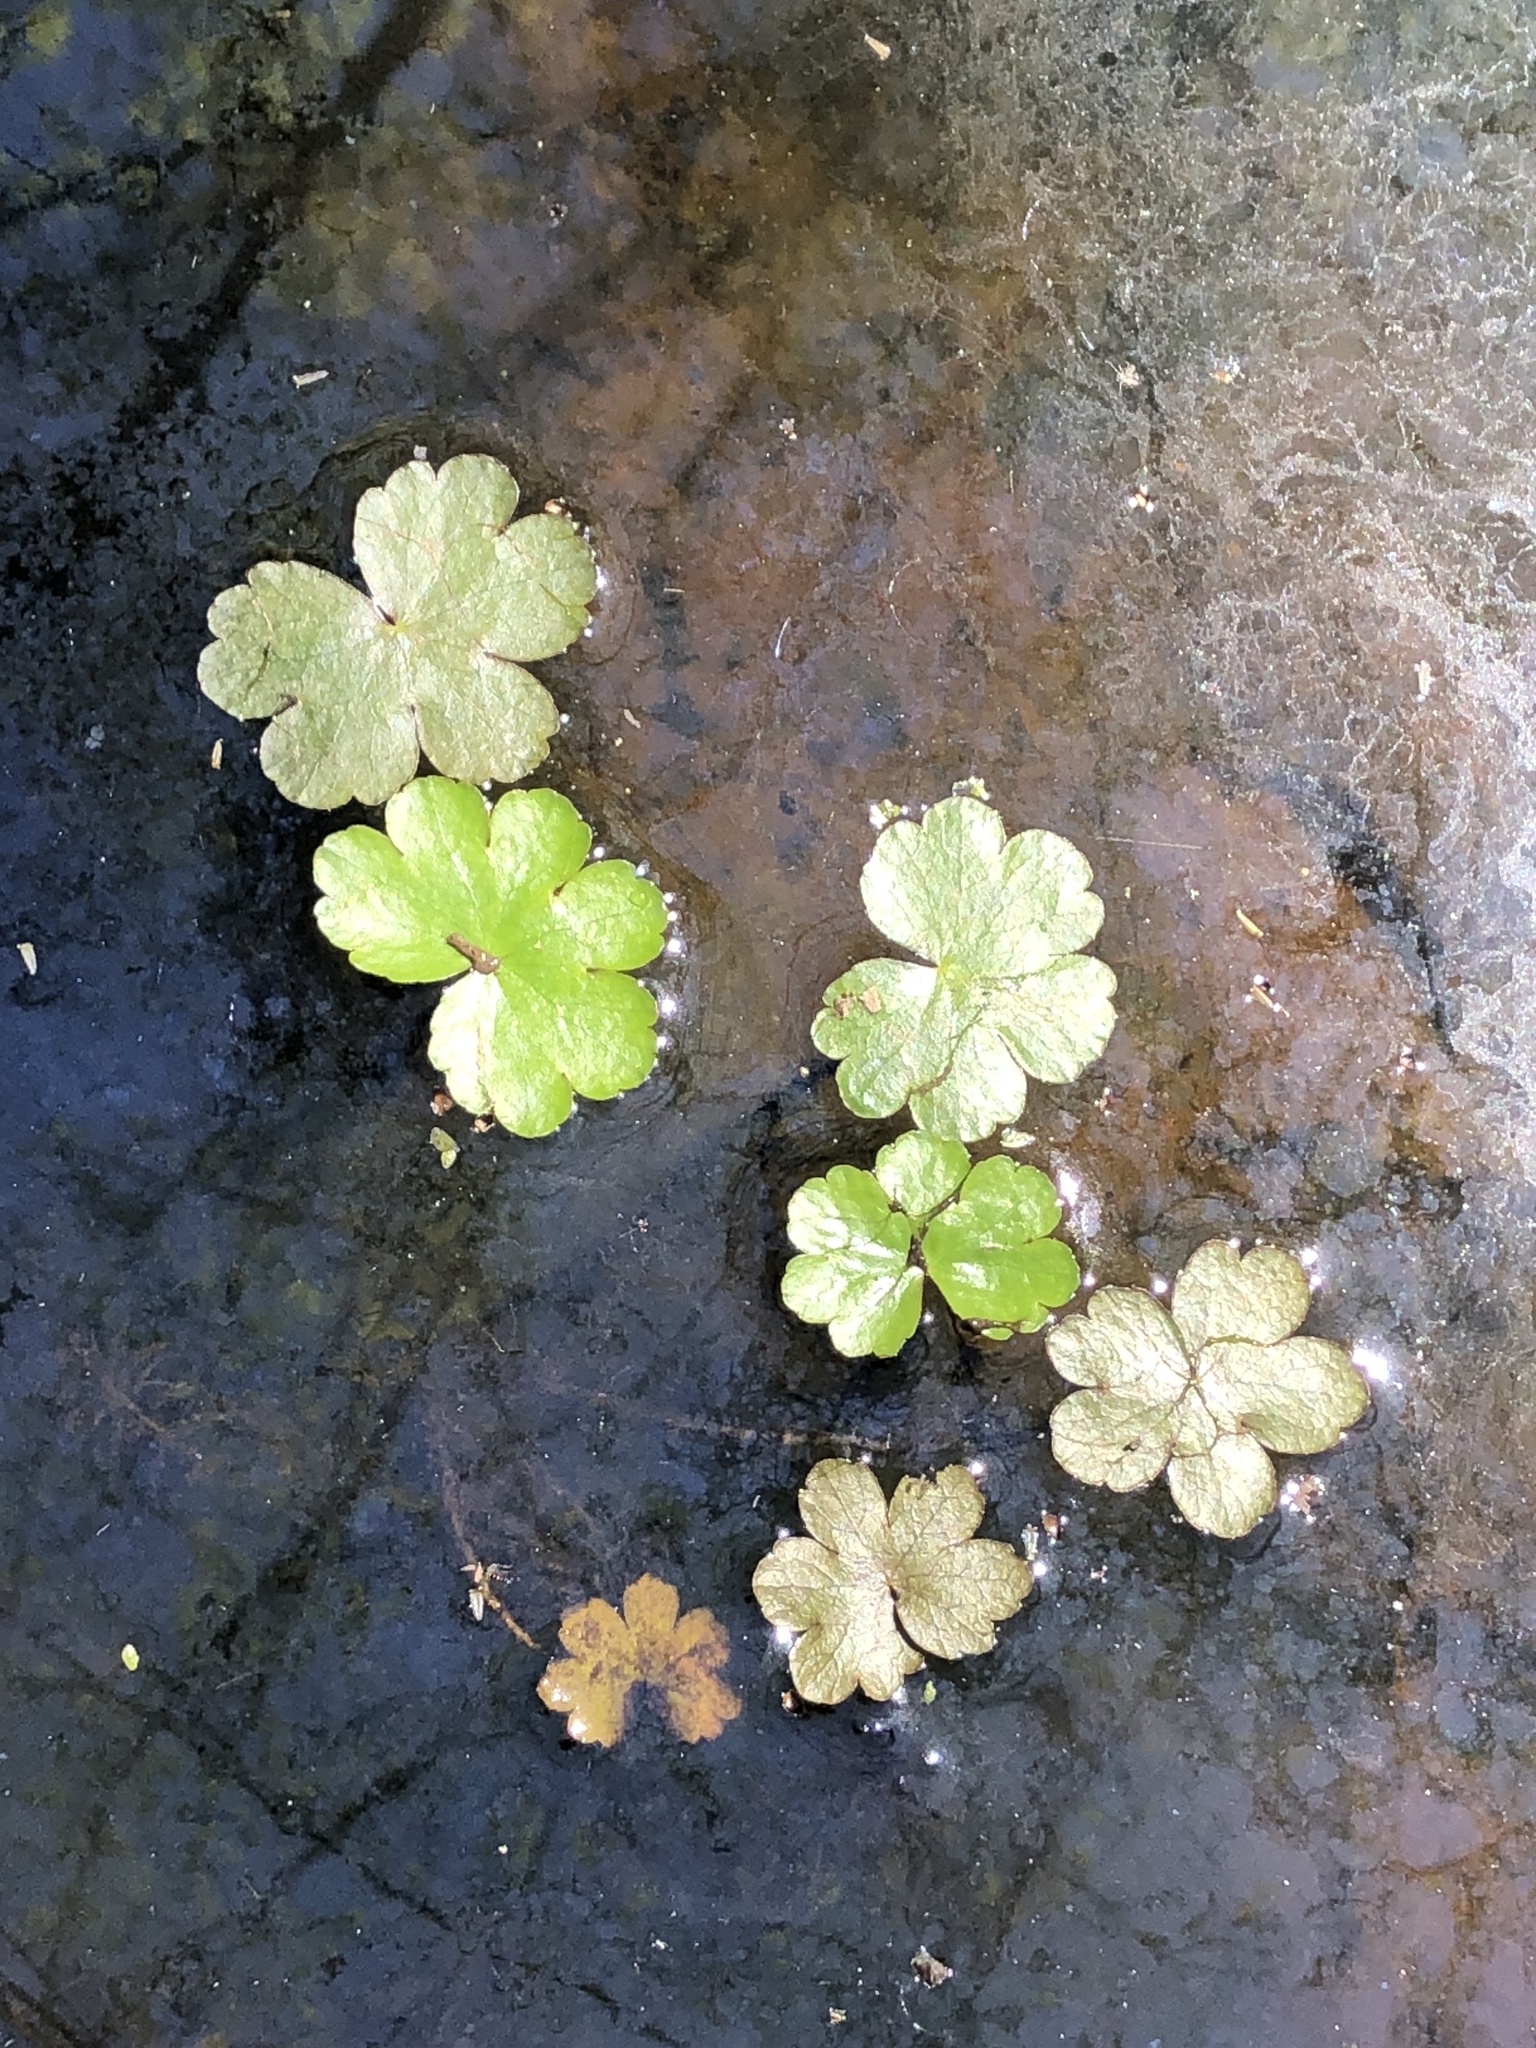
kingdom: Plantae
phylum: Tracheophyta
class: Magnoliopsida
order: Apiales
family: Araliaceae
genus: Hydrocotyle
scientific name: Hydrocotyle ranunculoides
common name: Floating pennywort
